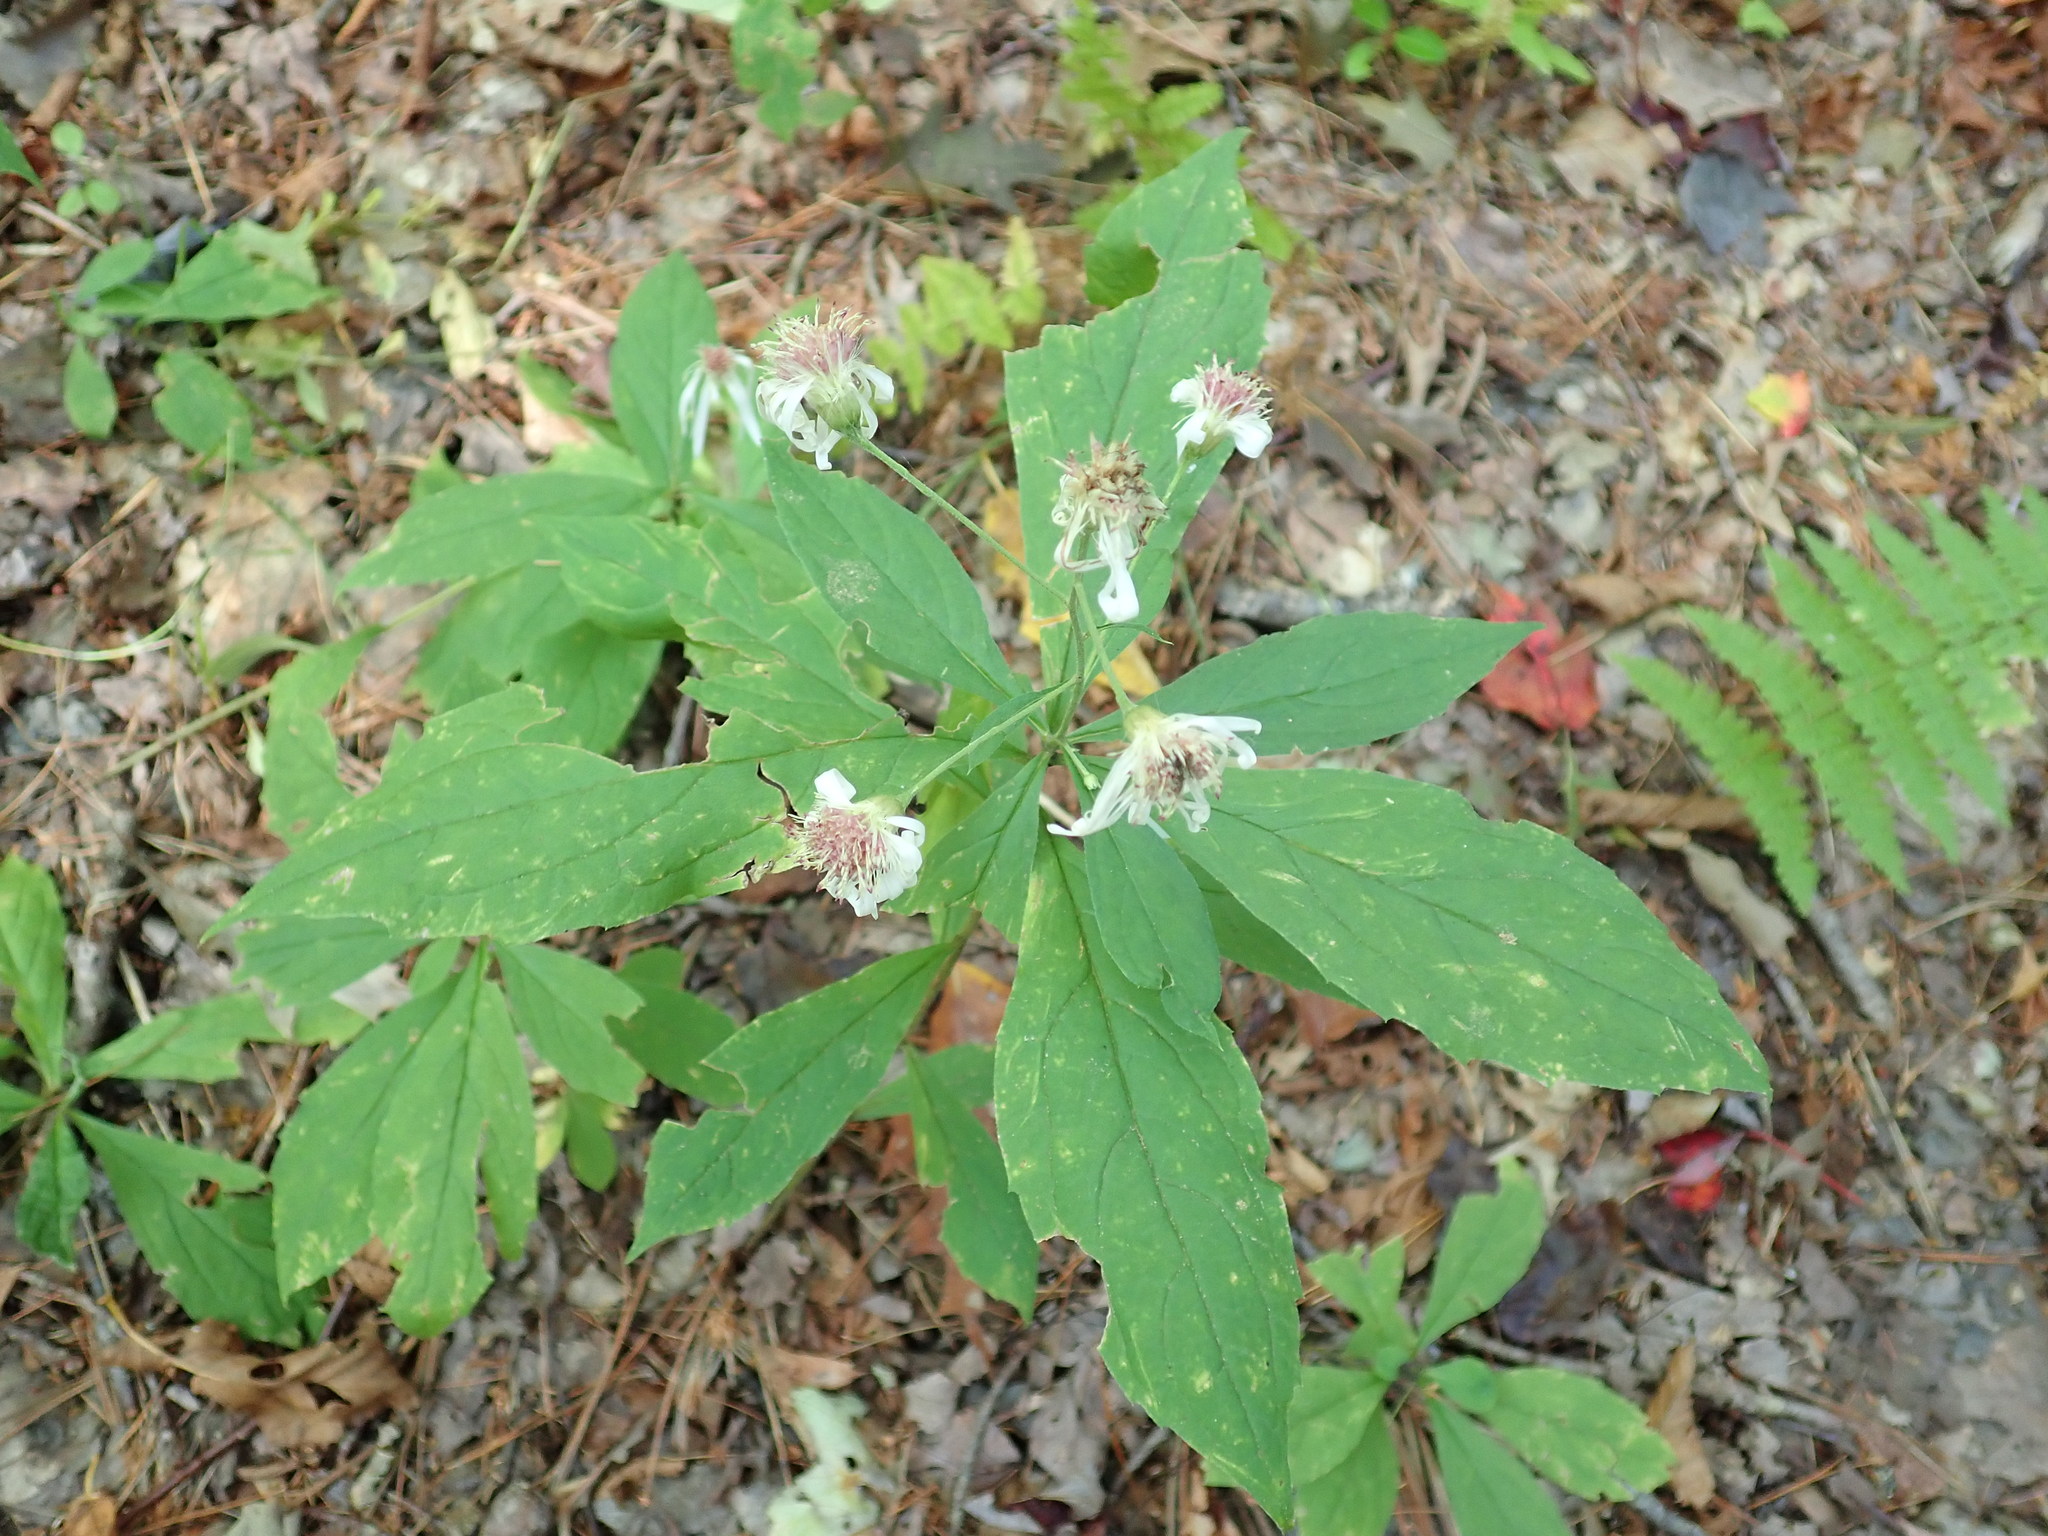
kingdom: Plantae
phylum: Tracheophyta
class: Magnoliopsida
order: Asterales
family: Asteraceae
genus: Oclemena
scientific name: Oclemena acuminata
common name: Mountain aster
